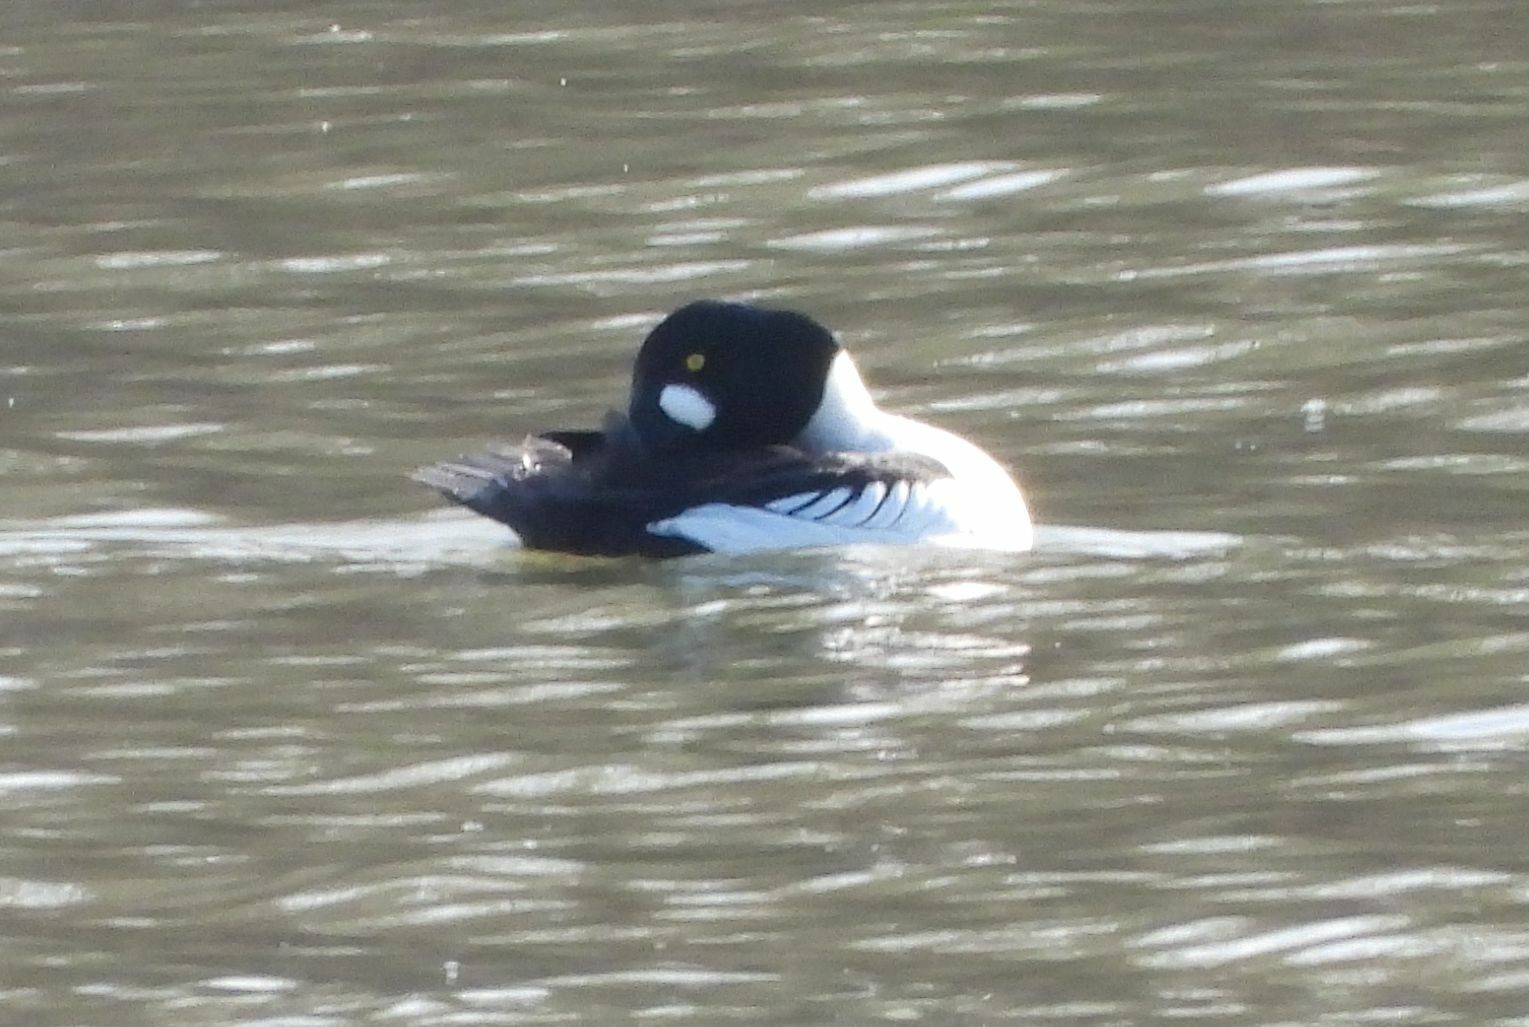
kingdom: Animalia
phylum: Chordata
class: Aves
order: Anseriformes
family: Anatidae
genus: Bucephala
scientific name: Bucephala clangula
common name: Common goldeneye
